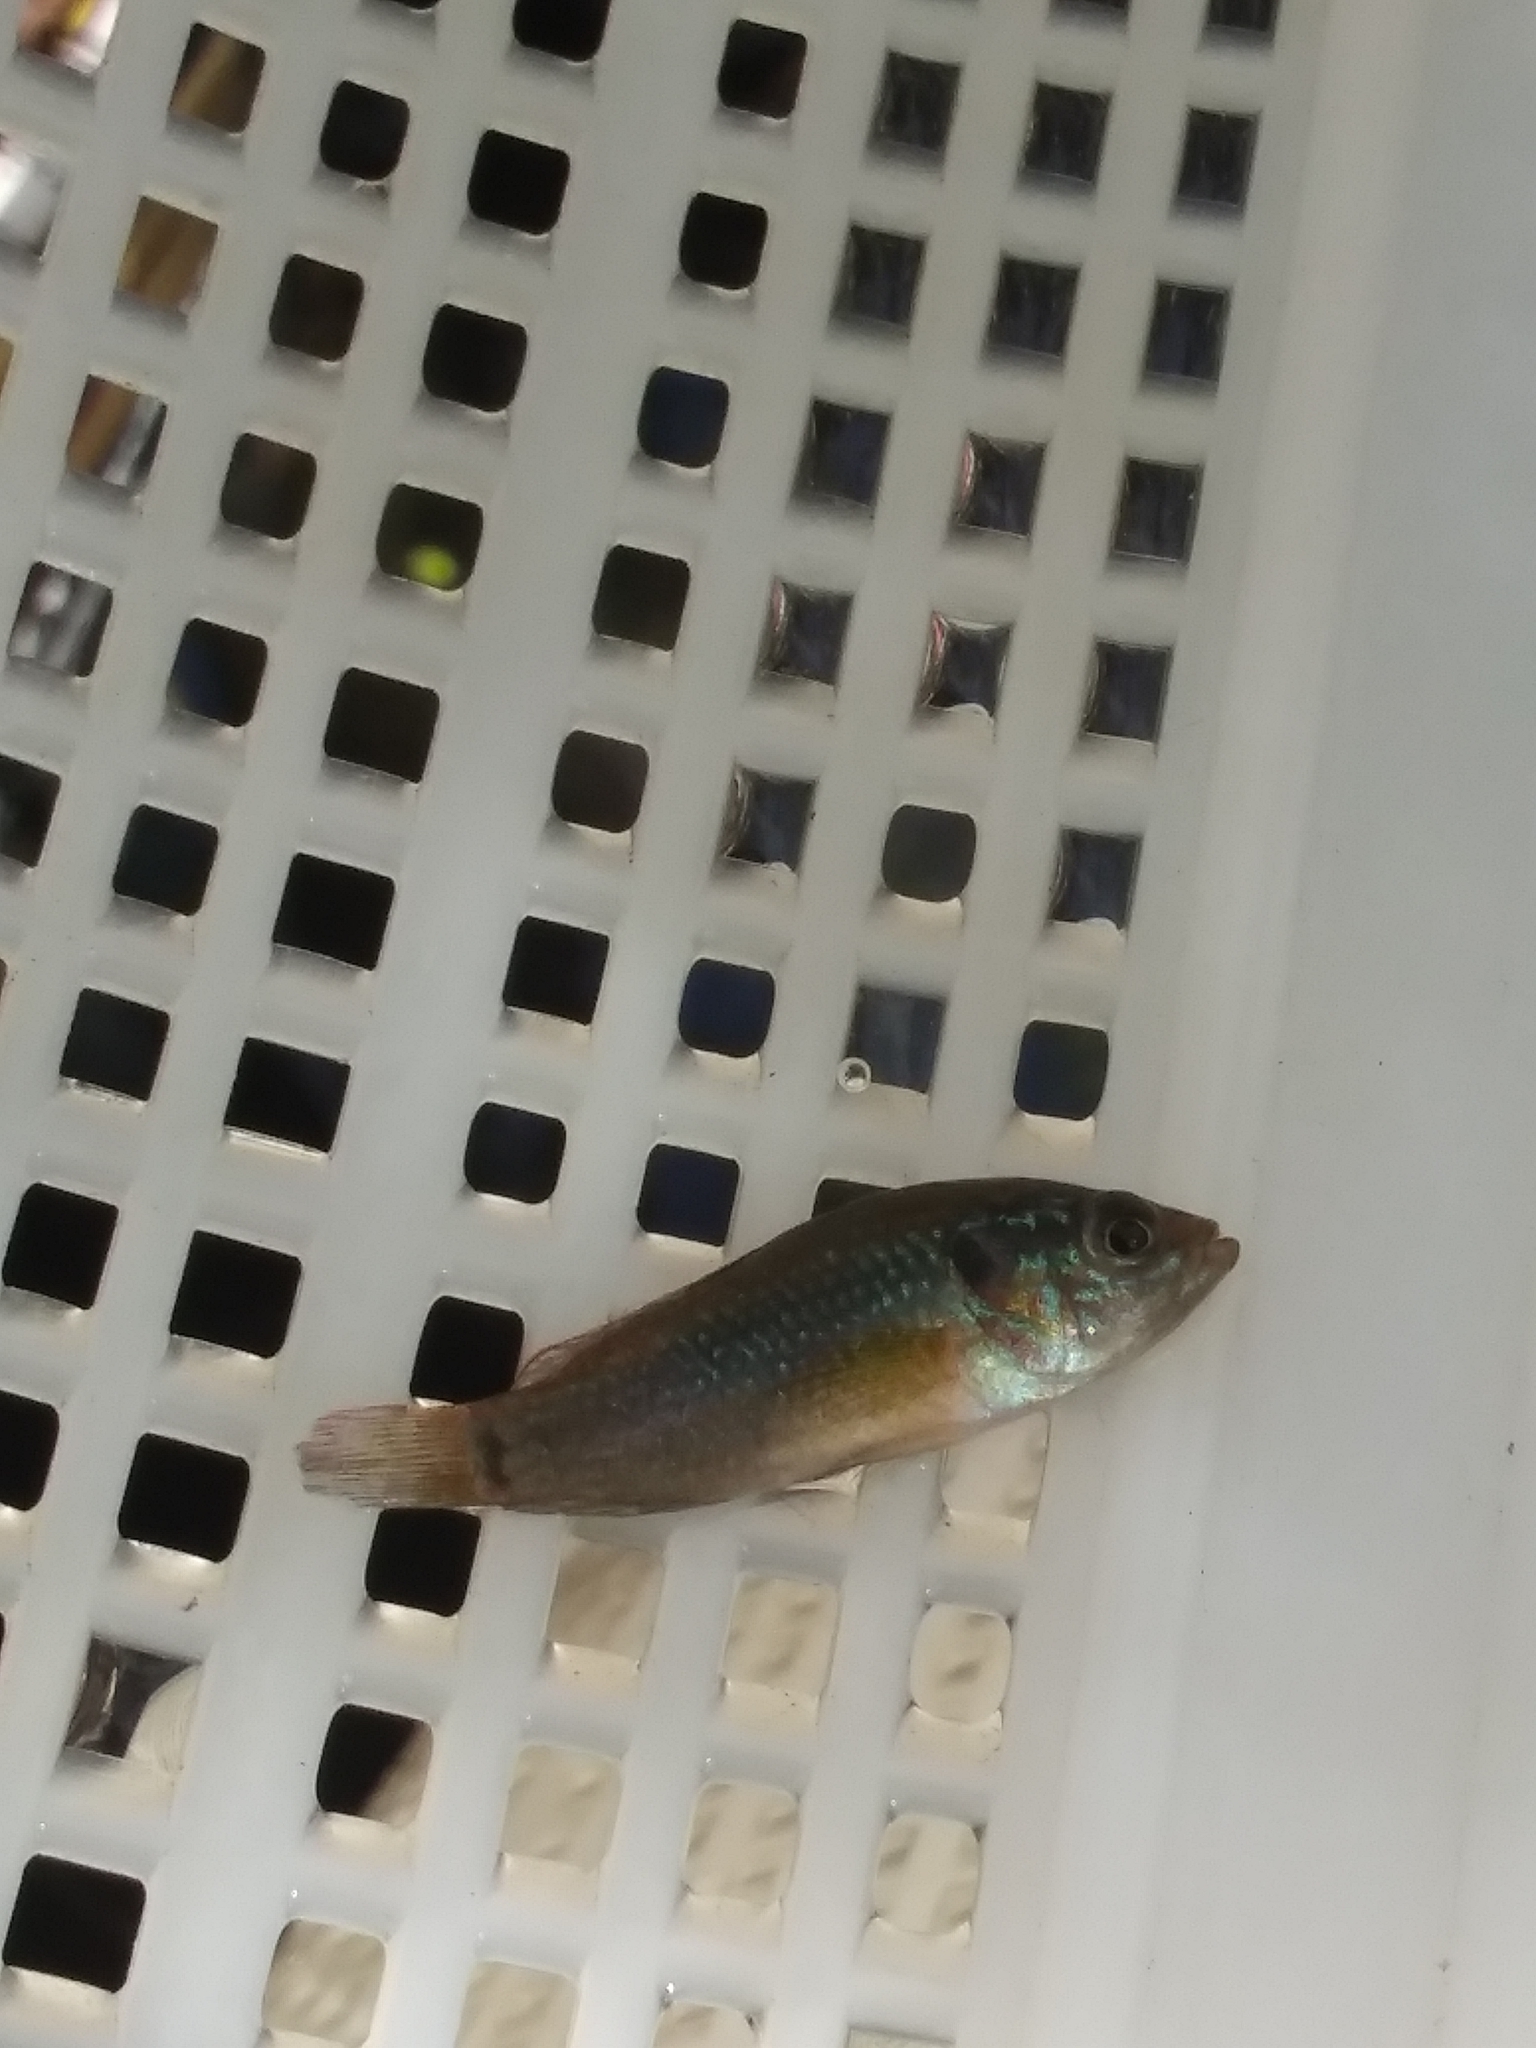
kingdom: Animalia
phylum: Chordata
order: Perciformes
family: Cichlidae
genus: Rubricatochromis
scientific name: Rubricatochromis
